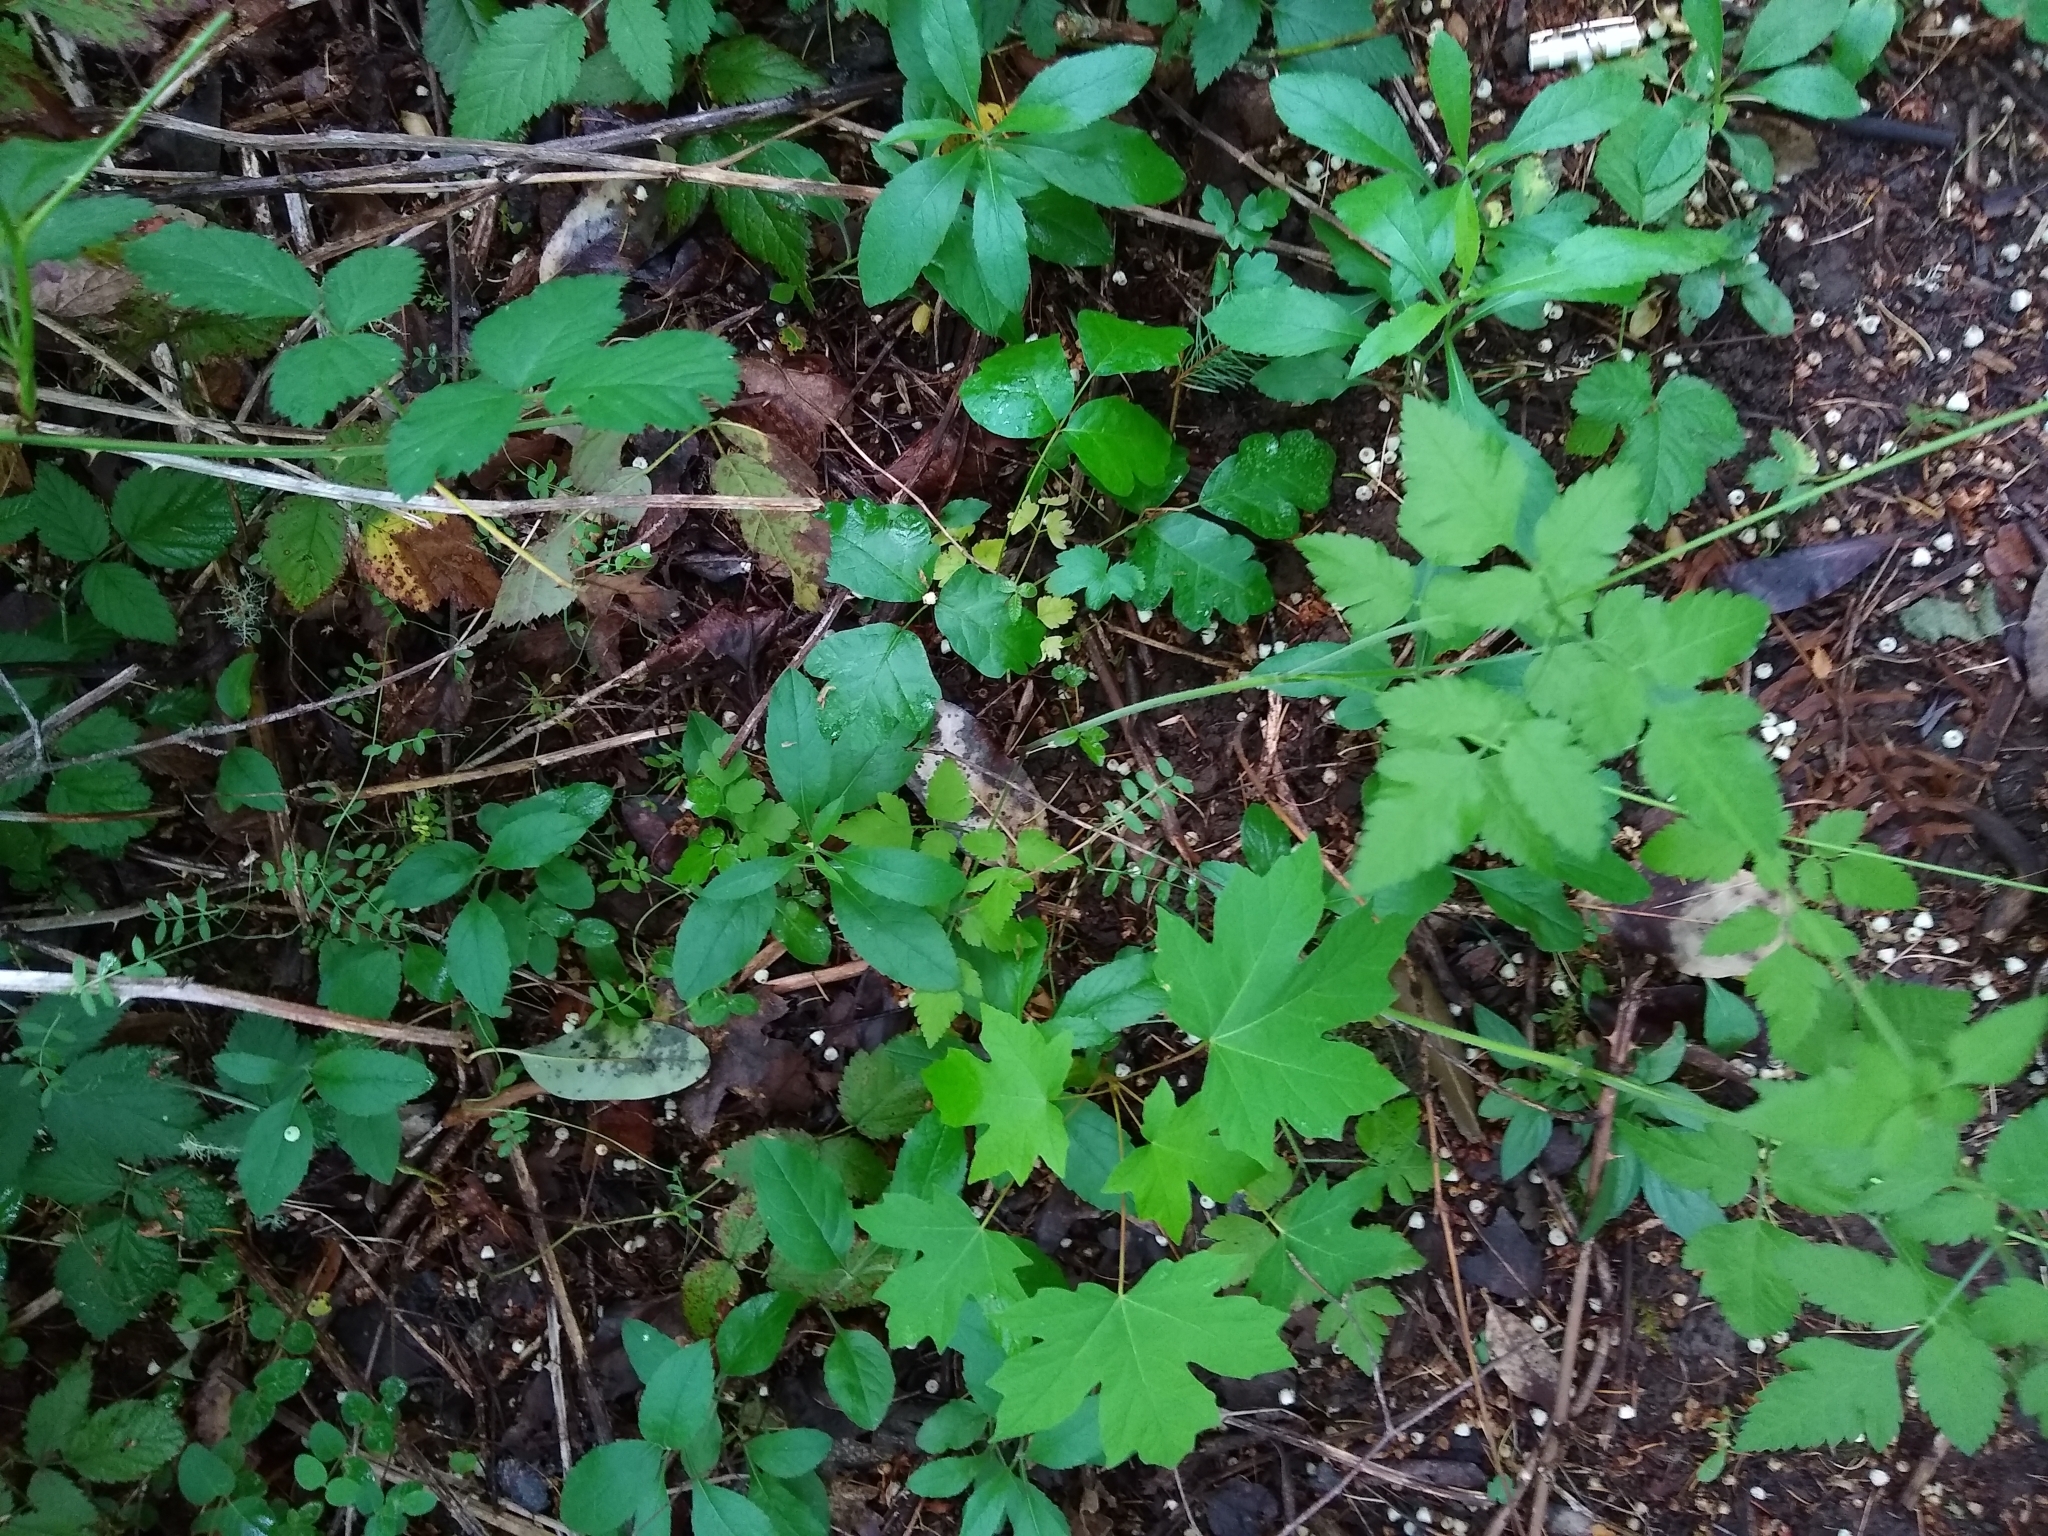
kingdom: Plantae
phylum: Tracheophyta
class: Magnoliopsida
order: Apiales
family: Apiaceae
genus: Osmorhiza
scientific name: Osmorhiza berteroi
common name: Mountain sweet cicely
